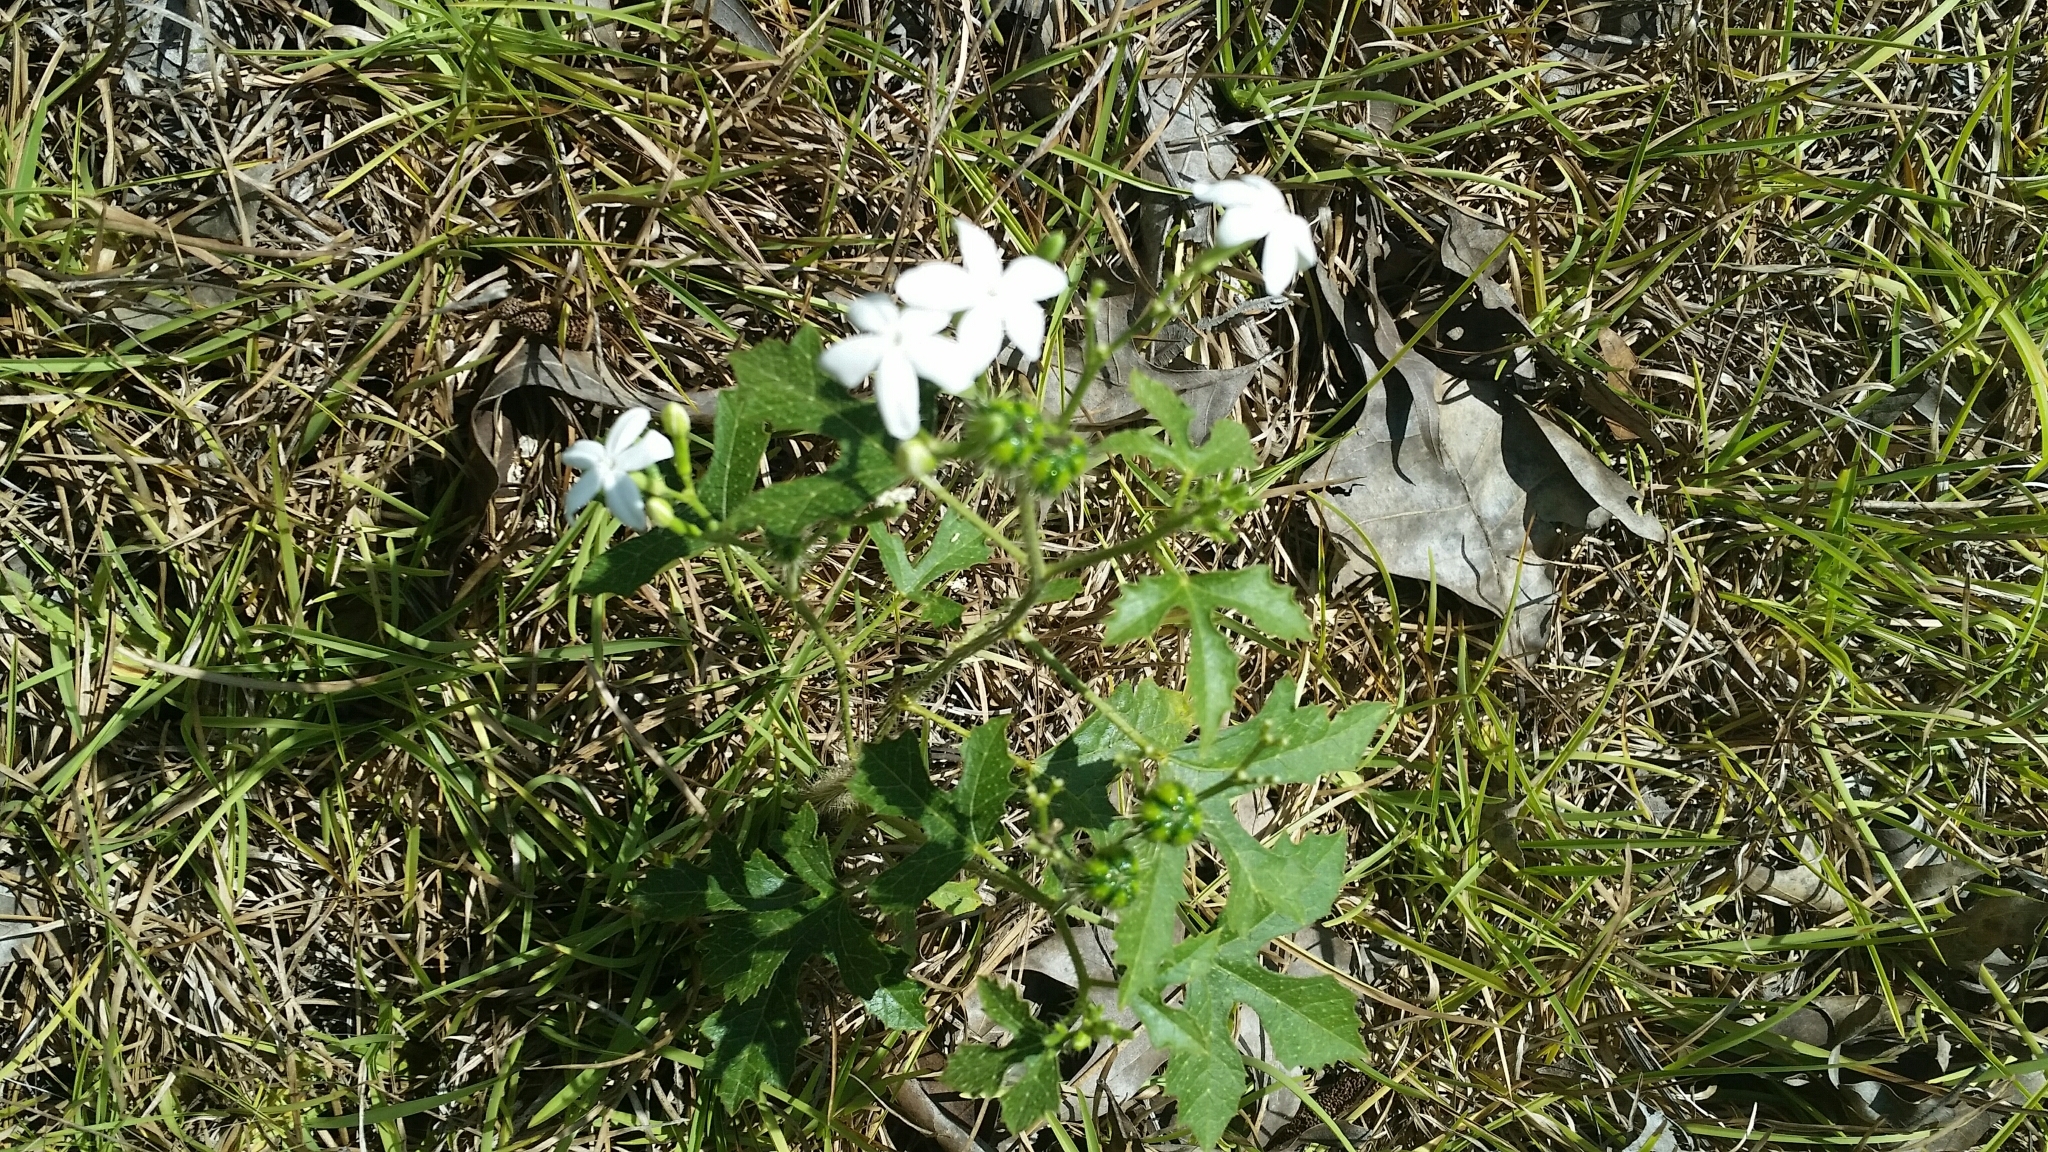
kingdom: Plantae
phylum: Tracheophyta
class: Magnoliopsida
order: Malpighiales
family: Euphorbiaceae
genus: Cnidoscolus
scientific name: Cnidoscolus stimulosus
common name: Bull-nettle
